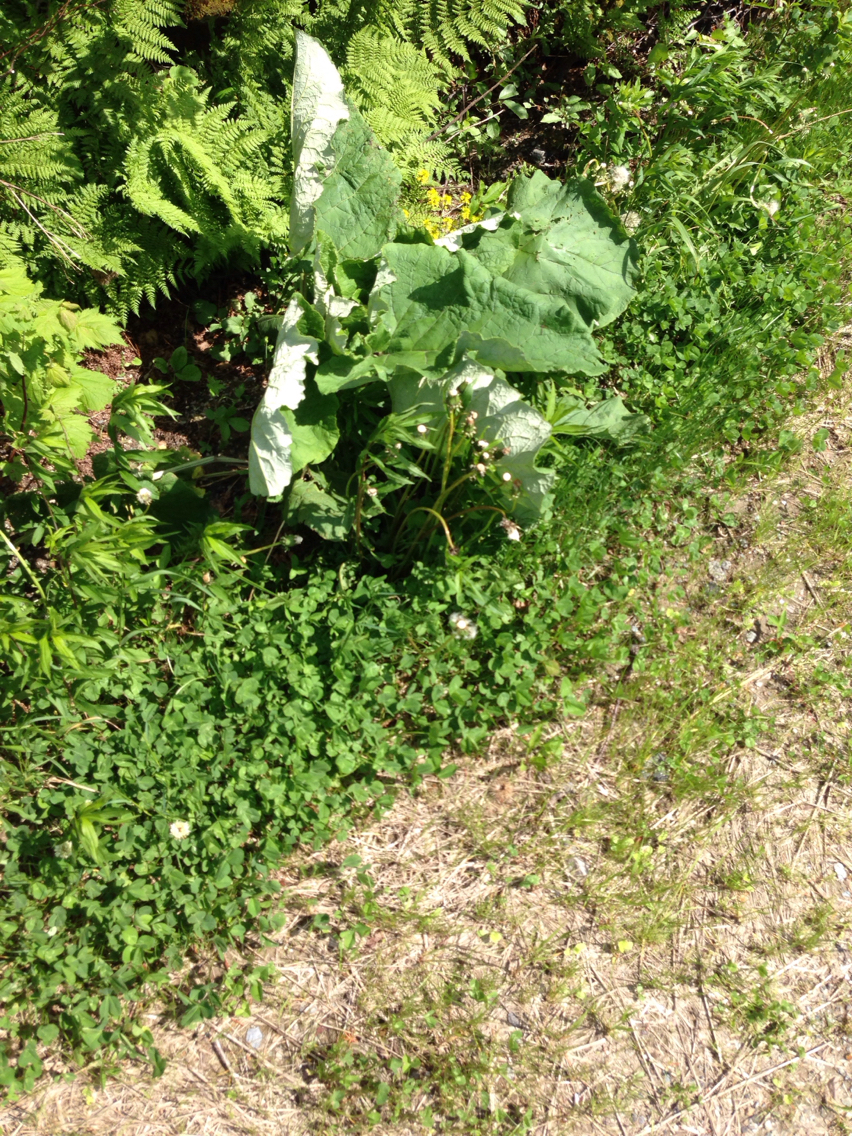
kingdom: Plantae
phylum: Tracheophyta
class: Magnoliopsida
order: Asterales
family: Asteraceae
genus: Arctium
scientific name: Arctium lappa
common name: Greater burdock
